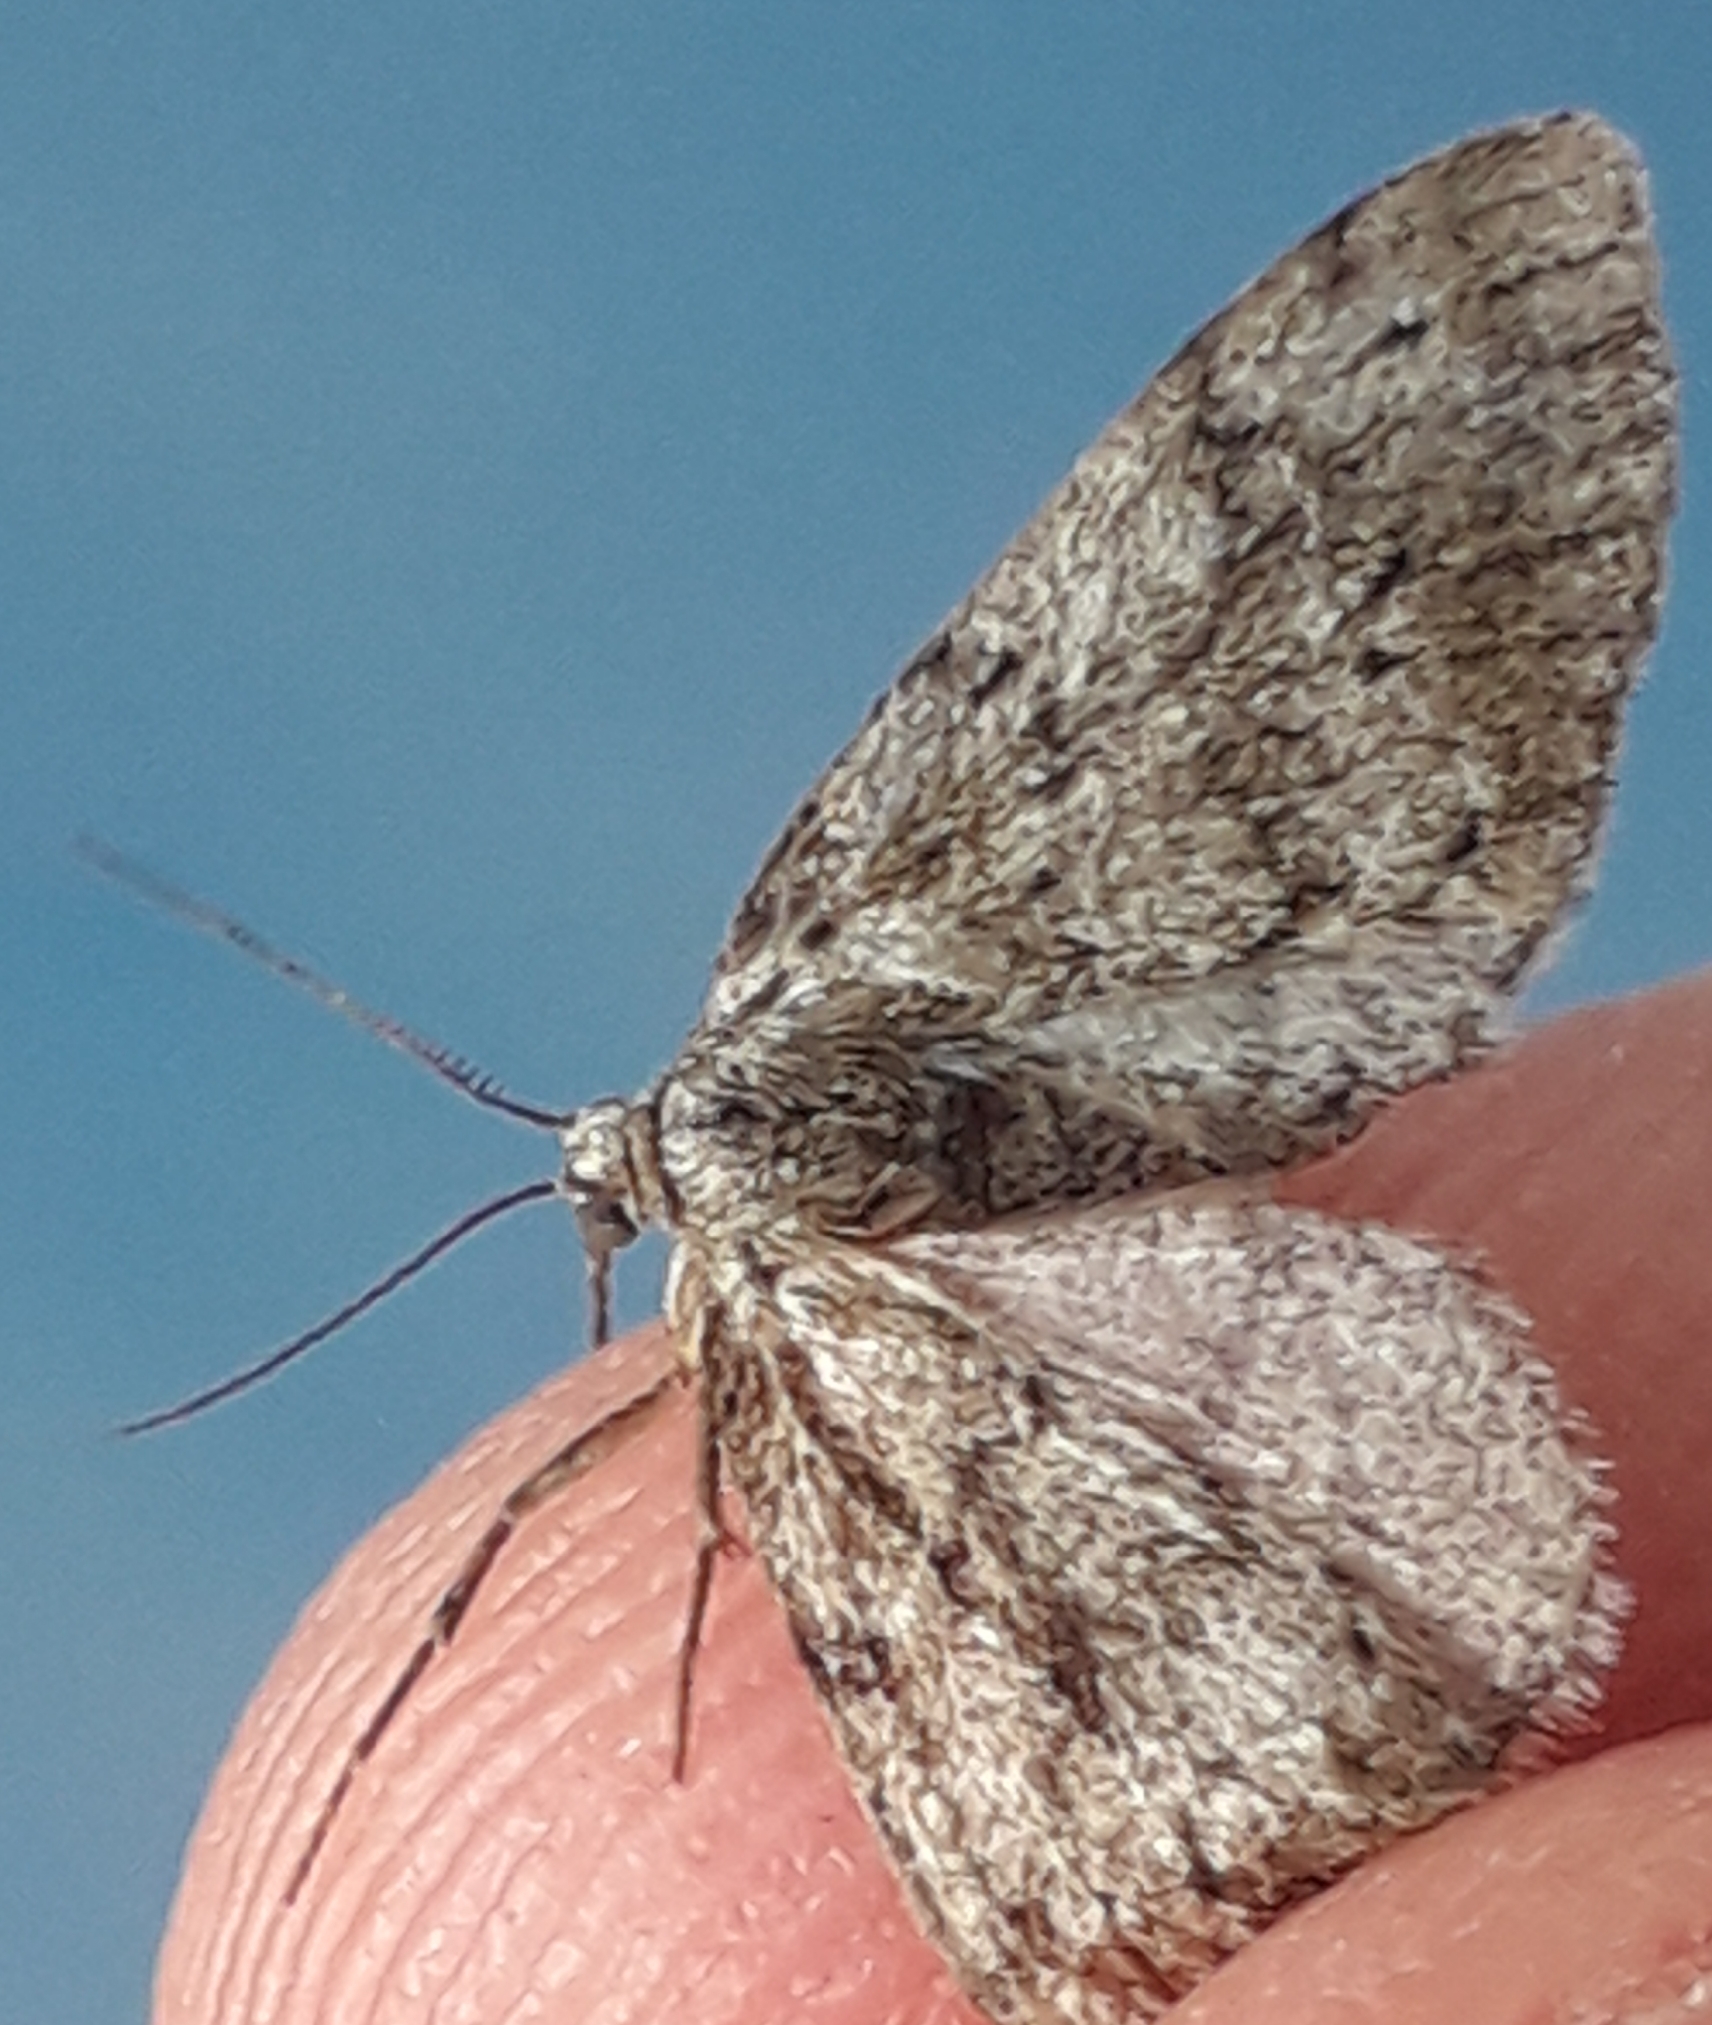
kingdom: Animalia
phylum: Arthropoda
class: Insecta
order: Lepidoptera
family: Geometridae
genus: Tephronia
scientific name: Tephronia sepiaria
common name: Dusky carpet
